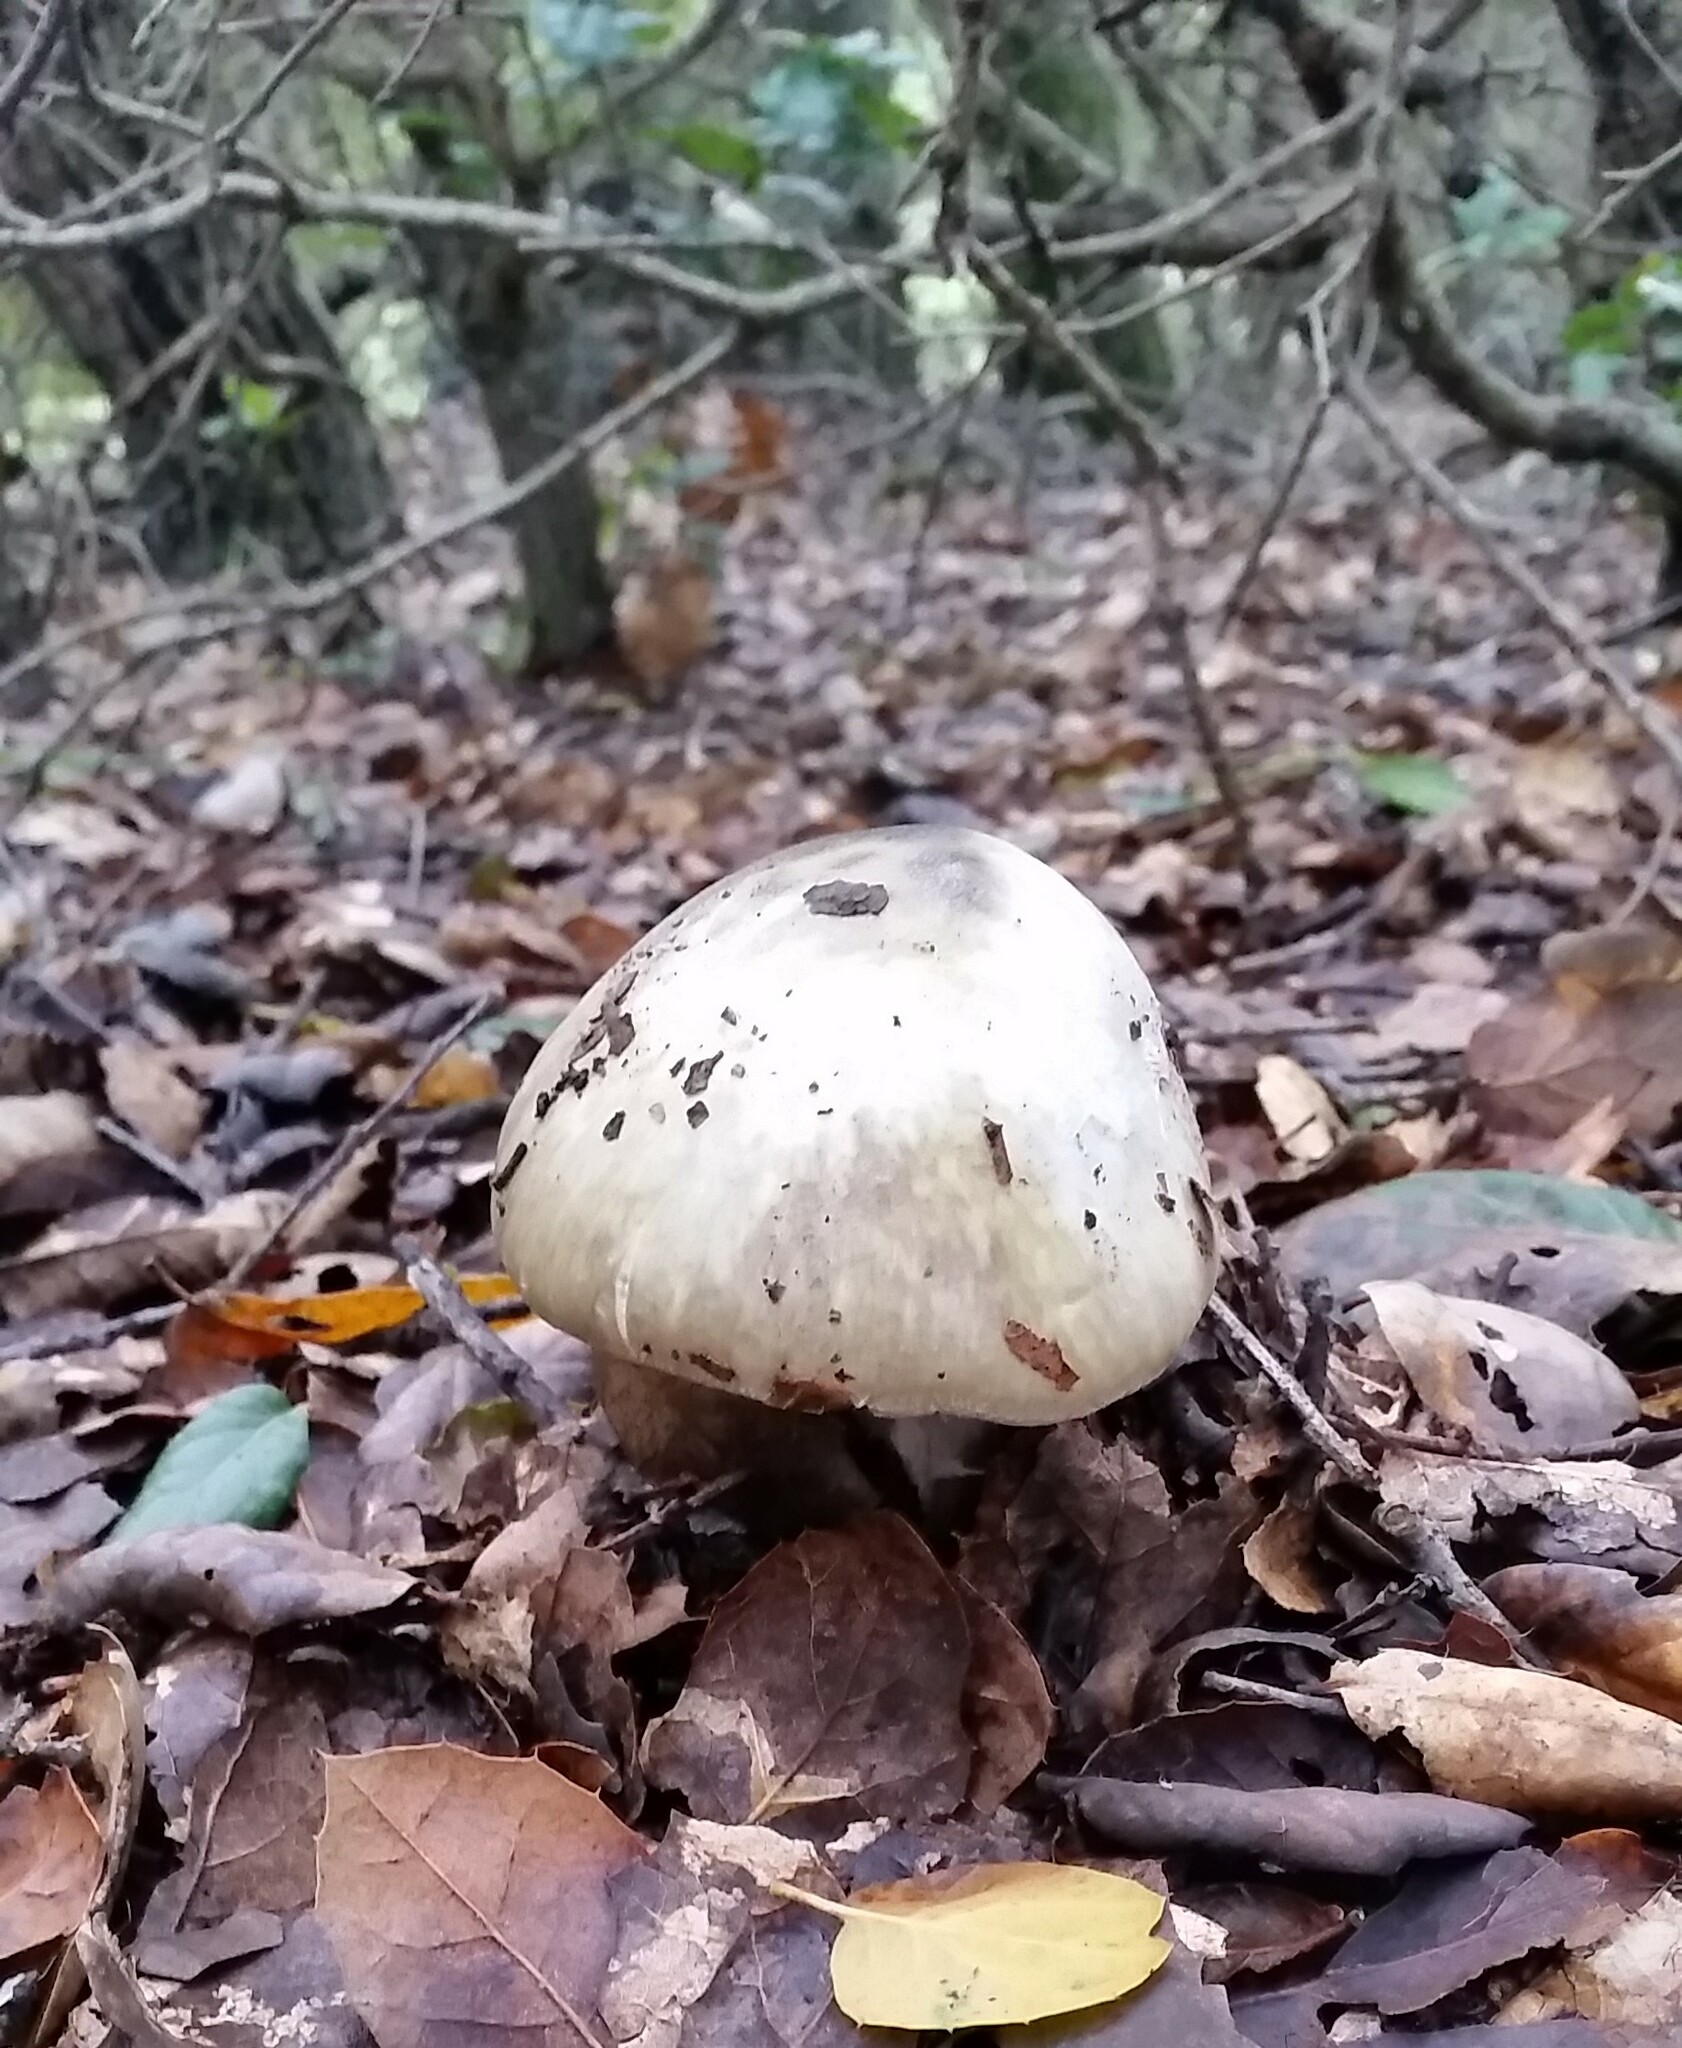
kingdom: Fungi
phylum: Basidiomycota
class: Agaricomycetes
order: Agaricales
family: Amanitaceae
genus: Amanita
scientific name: Amanita phalloides
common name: Death cap
